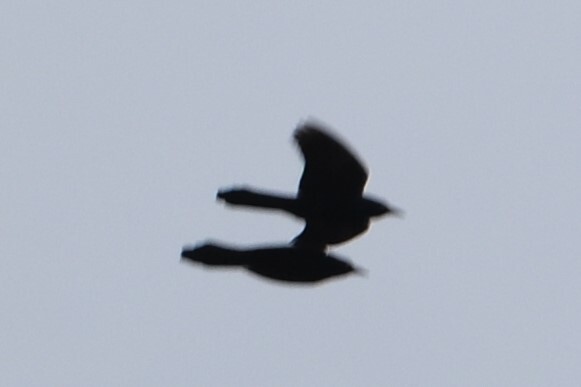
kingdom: Animalia
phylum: Chordata
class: Aves
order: Passeriformes
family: Icteridae
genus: Quiscalus
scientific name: Quiscalus quiscula
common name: Common grackle
